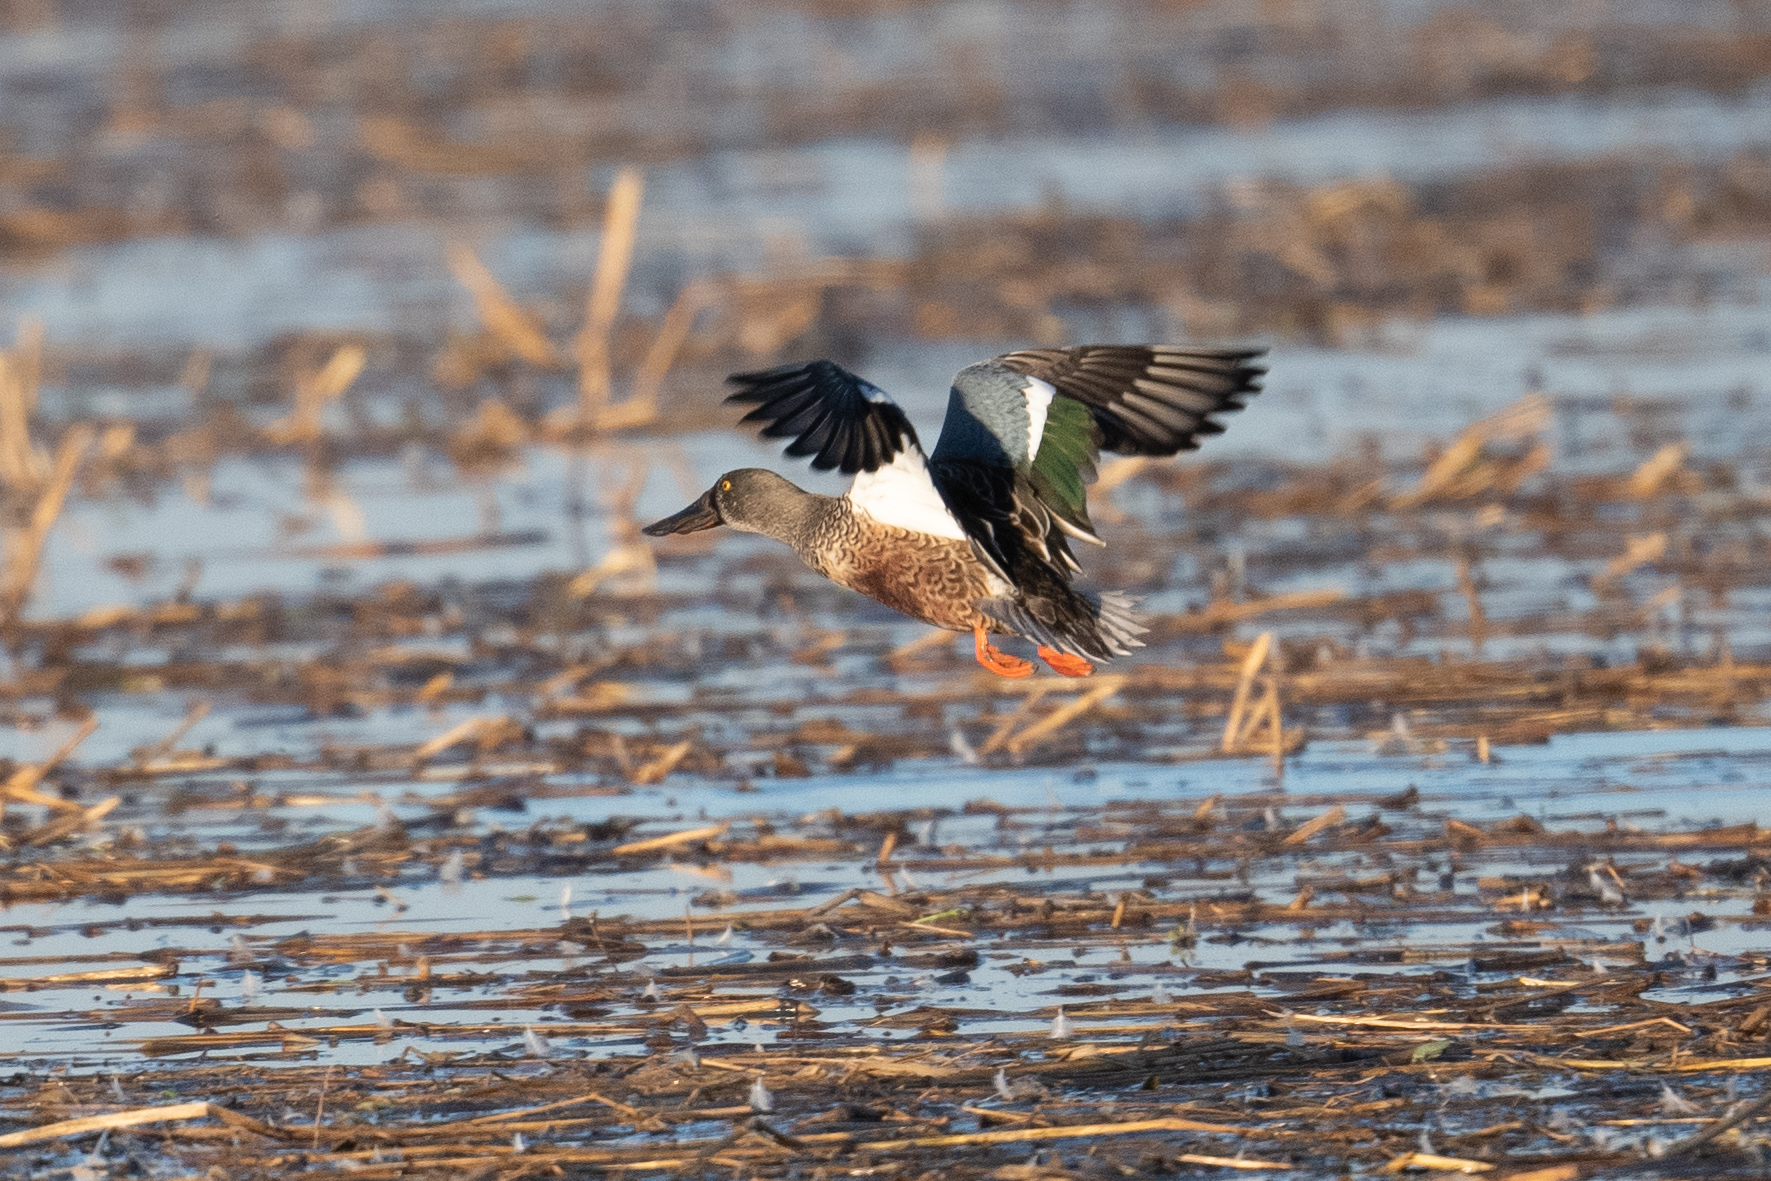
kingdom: Animalia
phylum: Chordata
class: Aves
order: Anseriformes
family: Anatidae
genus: Spatula
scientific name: Spatula clypeata
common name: Northern shoveler
